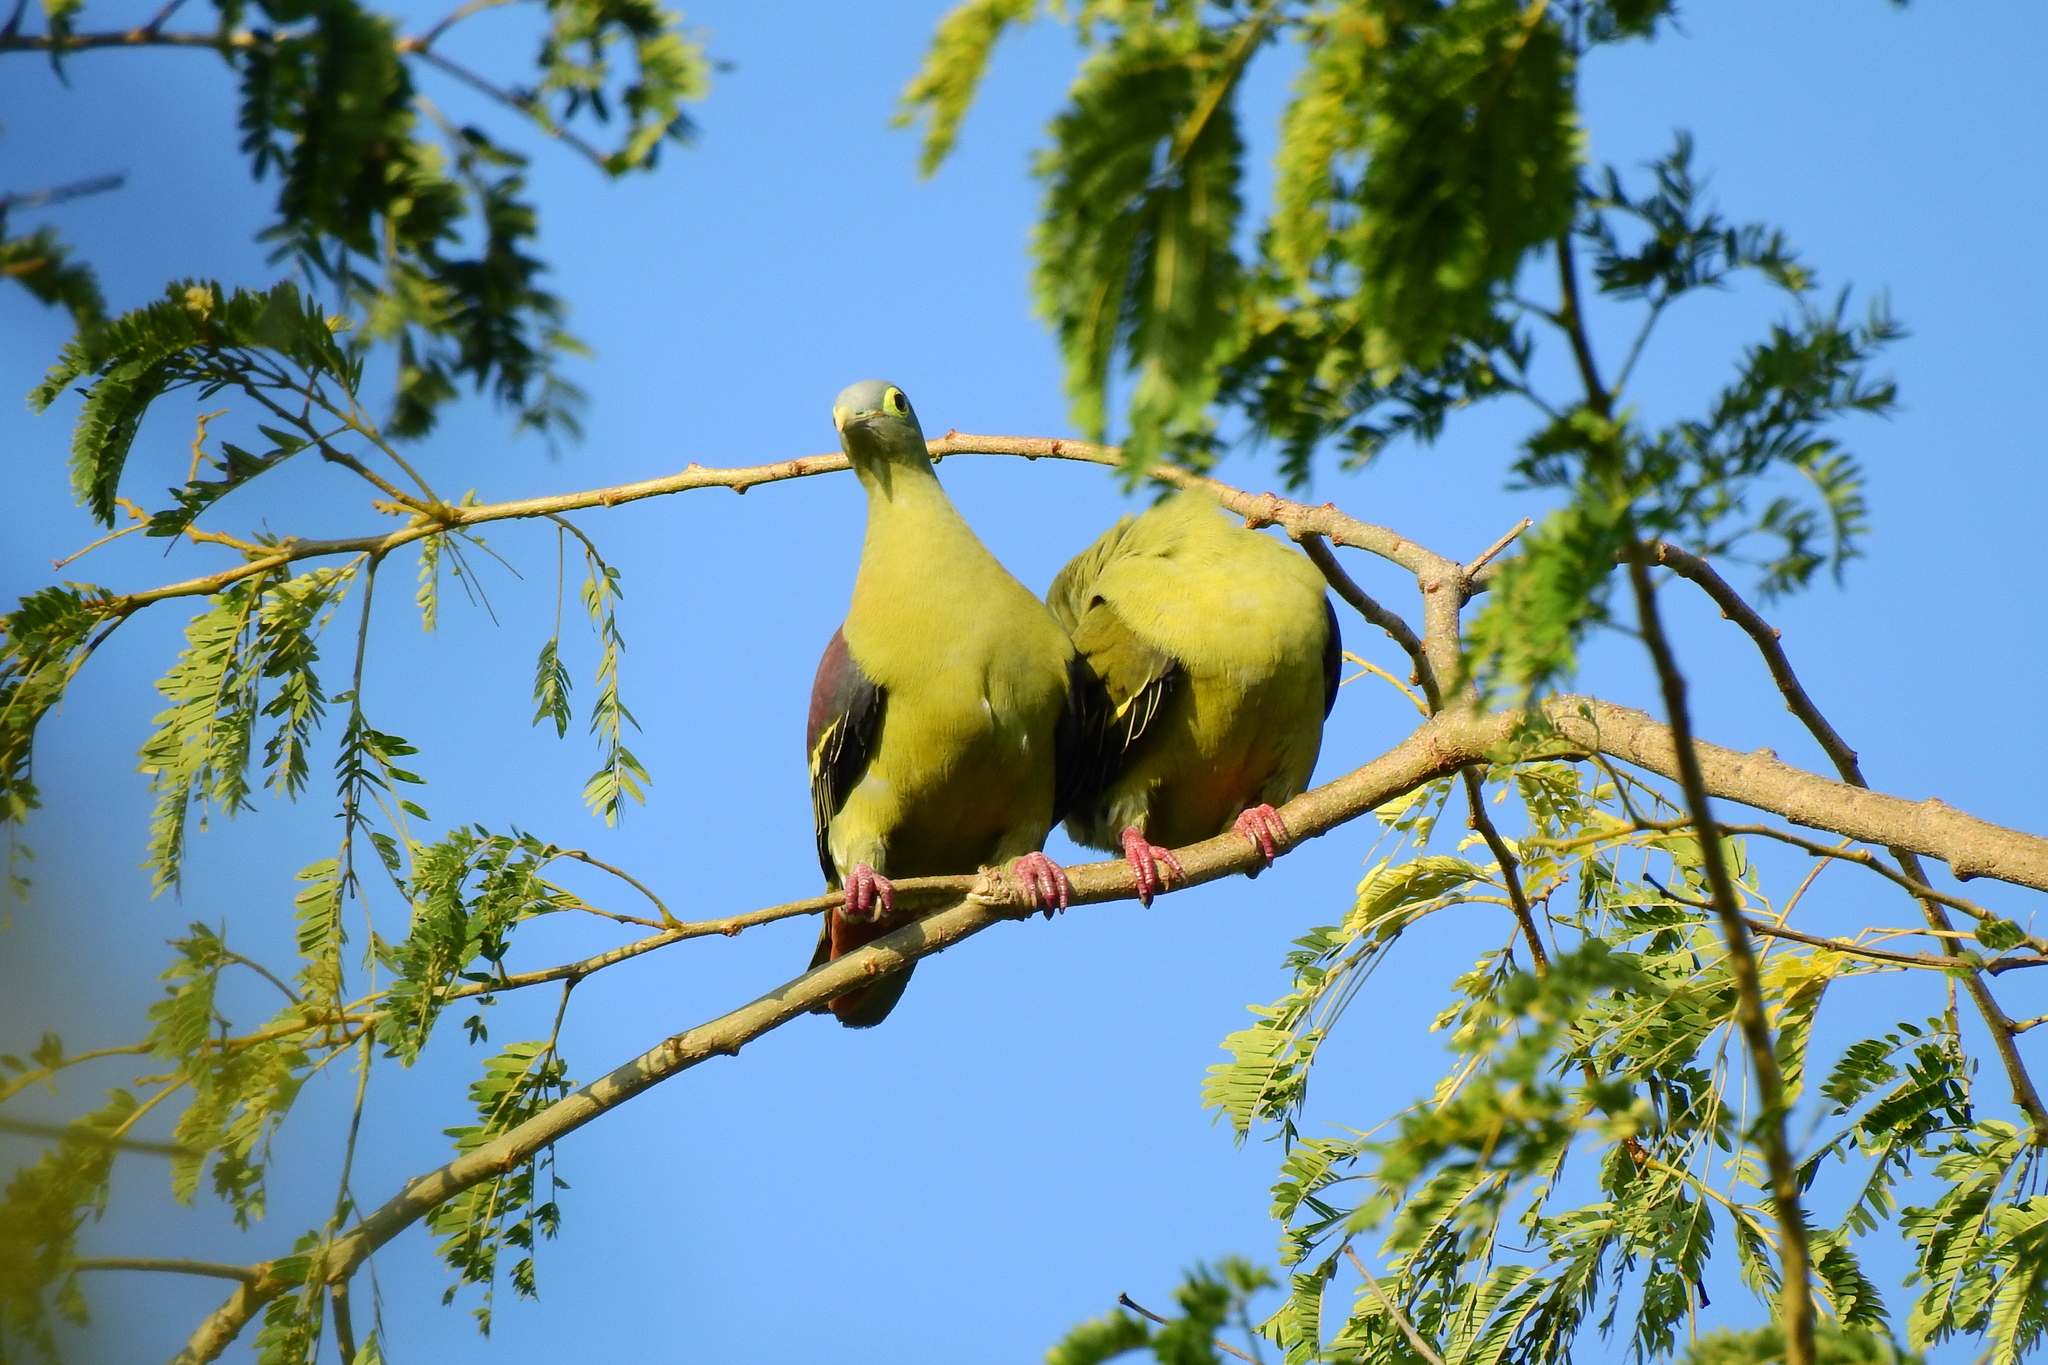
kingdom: Animalia
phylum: Chordata
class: Aves
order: Columbiformes
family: Columbidae
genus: Treron
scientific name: Treron griseicauda
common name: Grey-cheeked green pigeon
